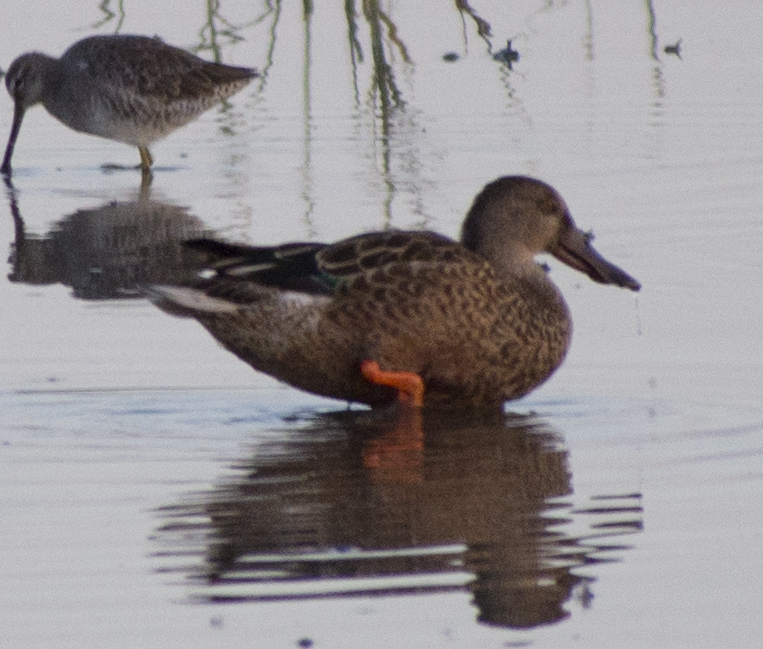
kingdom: Animalia
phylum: Chordata
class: Aves
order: Anseriformes
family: Anatidae
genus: Spatula
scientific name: Spatula clypeata
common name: Northern shoveler
